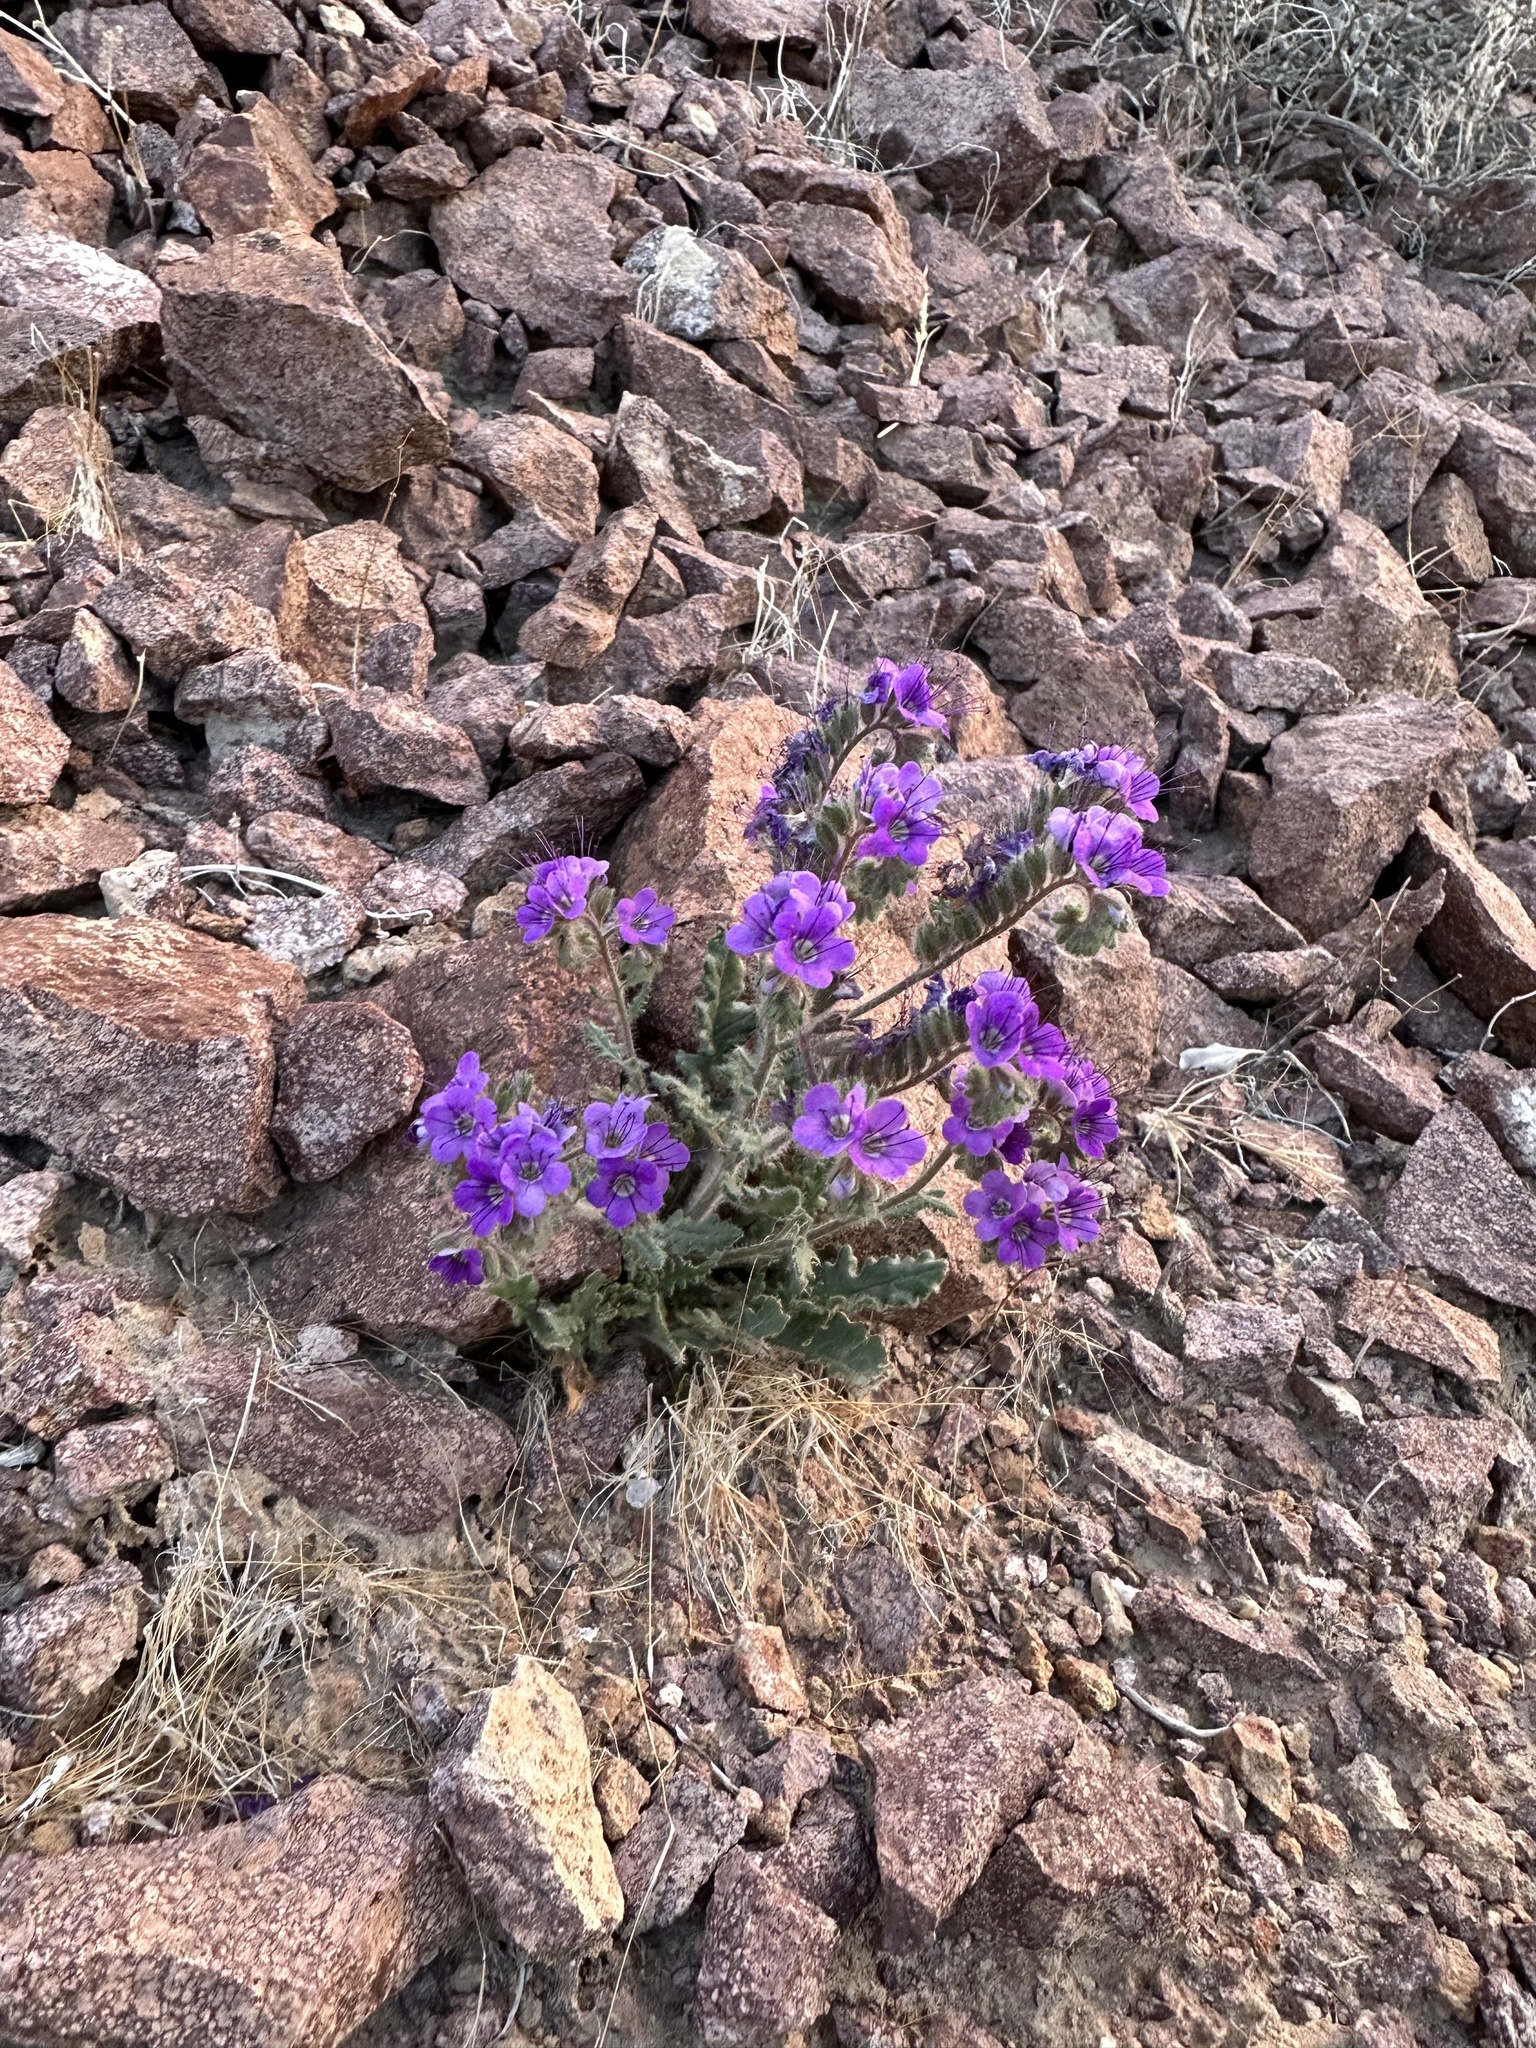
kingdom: Plantae
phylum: Tracheophyta
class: Magnoliopsida
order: Boraginales
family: Hydrophyllaceae
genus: Phacelia
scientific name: Phacelia crenulata
